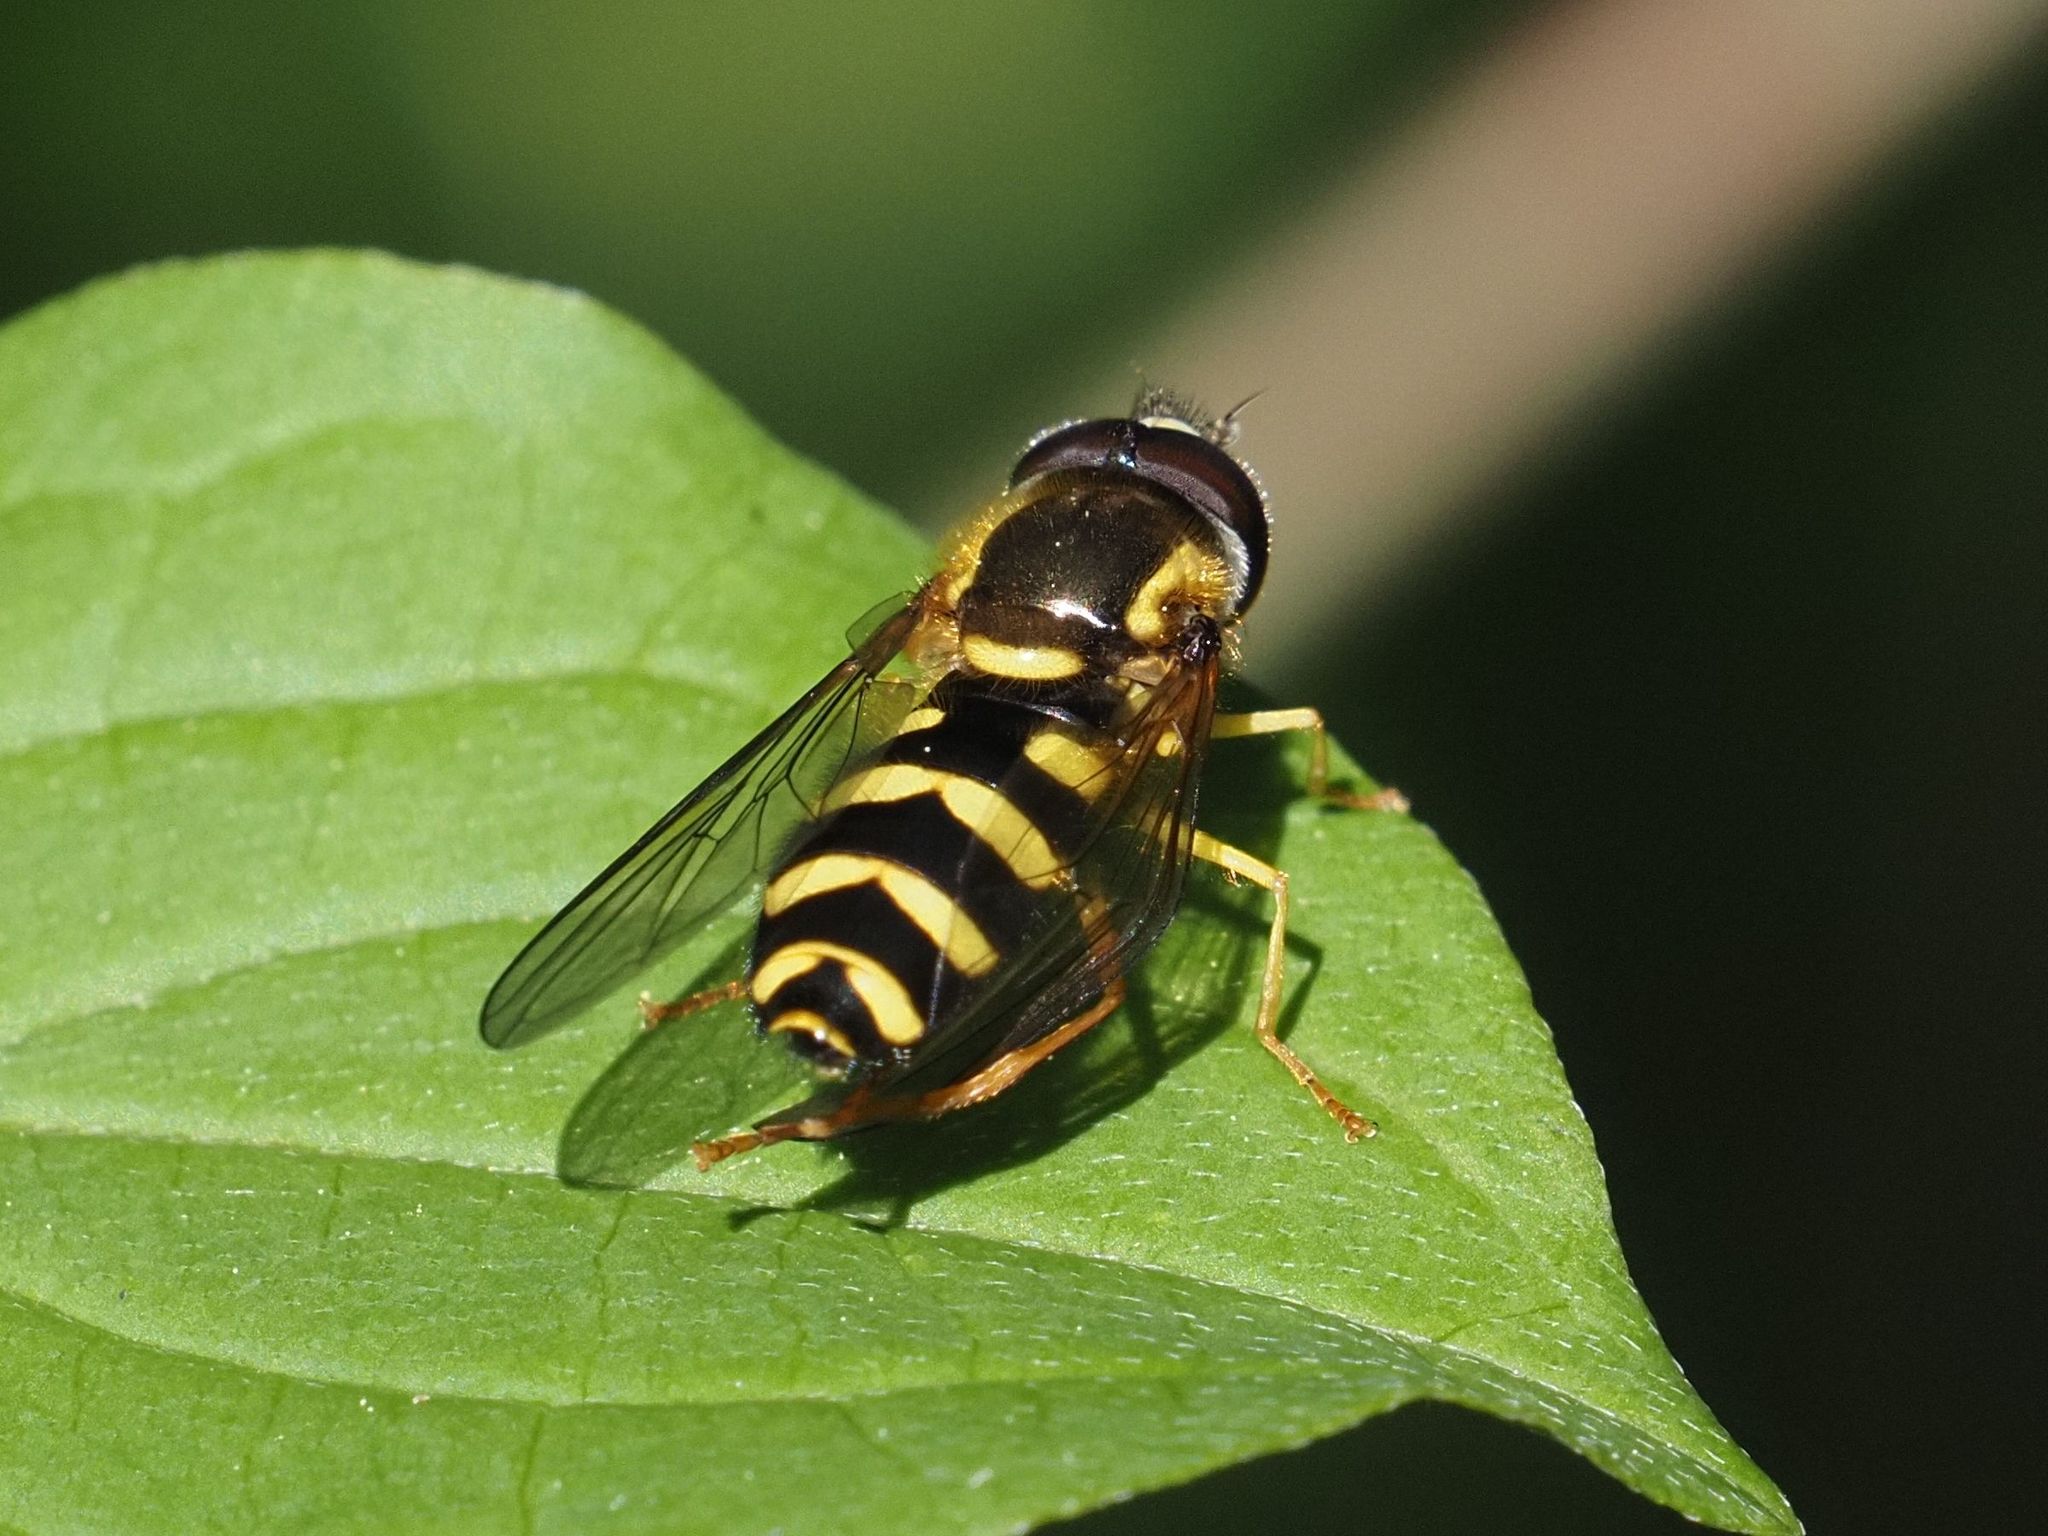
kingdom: Animalia
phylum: Arthropoda
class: Insecta
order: Diptera
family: Syrphidae
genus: Philhelius
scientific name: Philhelius laetus
